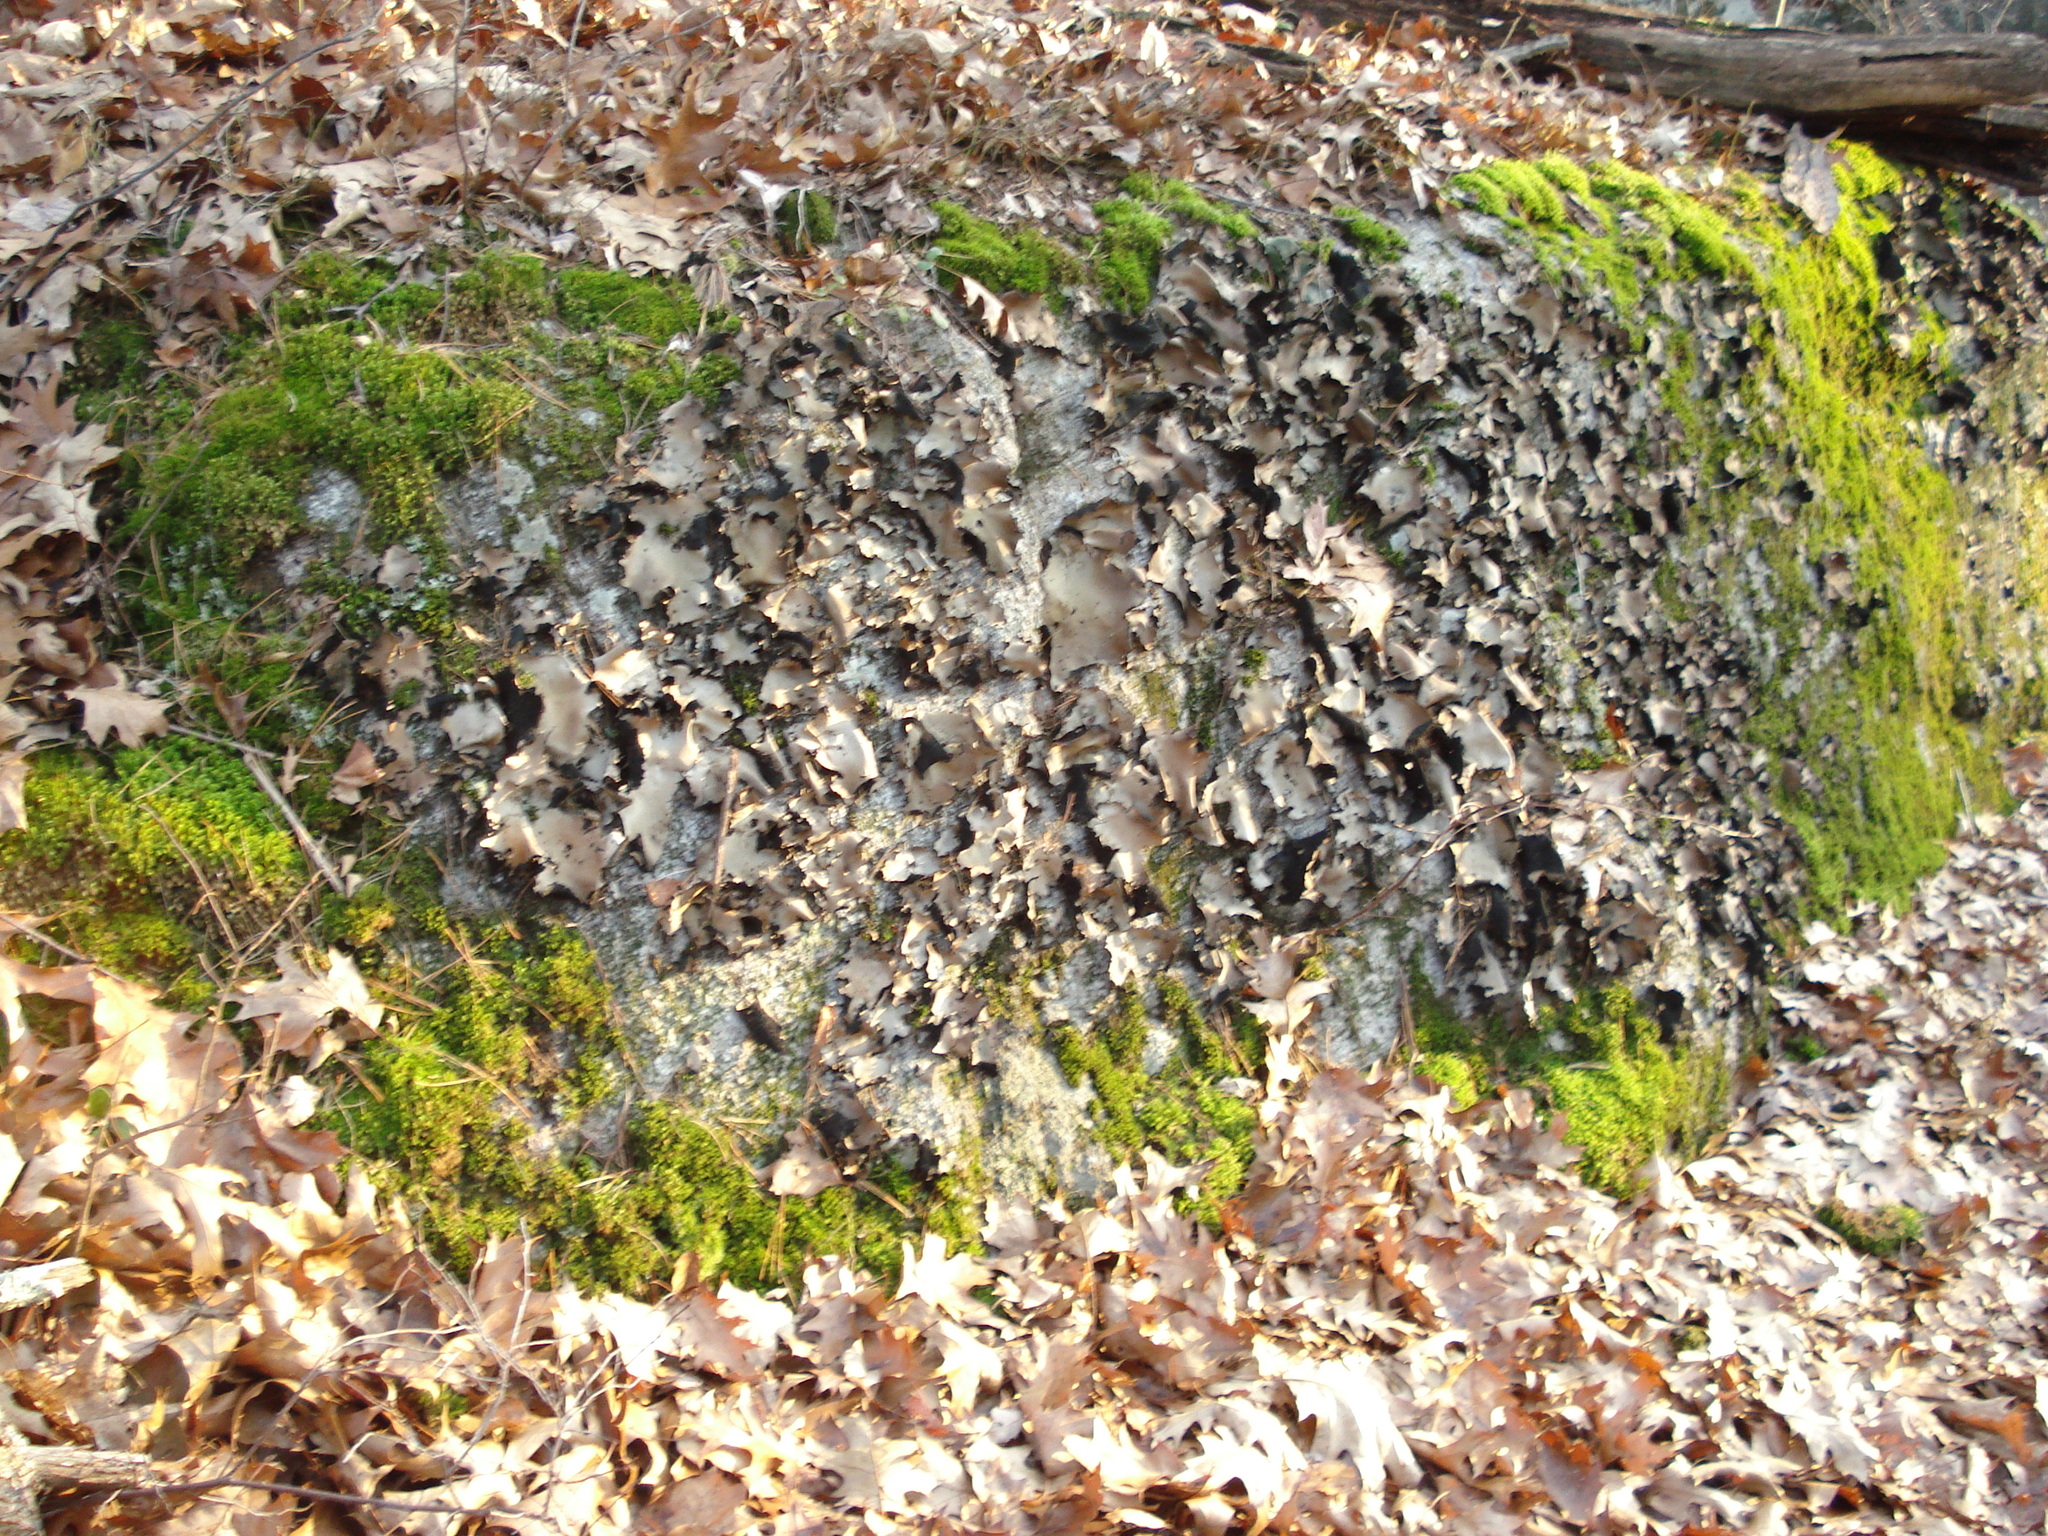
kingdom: Fungi
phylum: Ascomycota
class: Lecanoromycetes
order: Umbilicariales
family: Umbilicariaceae
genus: Umbilicaria
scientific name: Umbilicaria mammulata
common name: Smooth rock tripe
